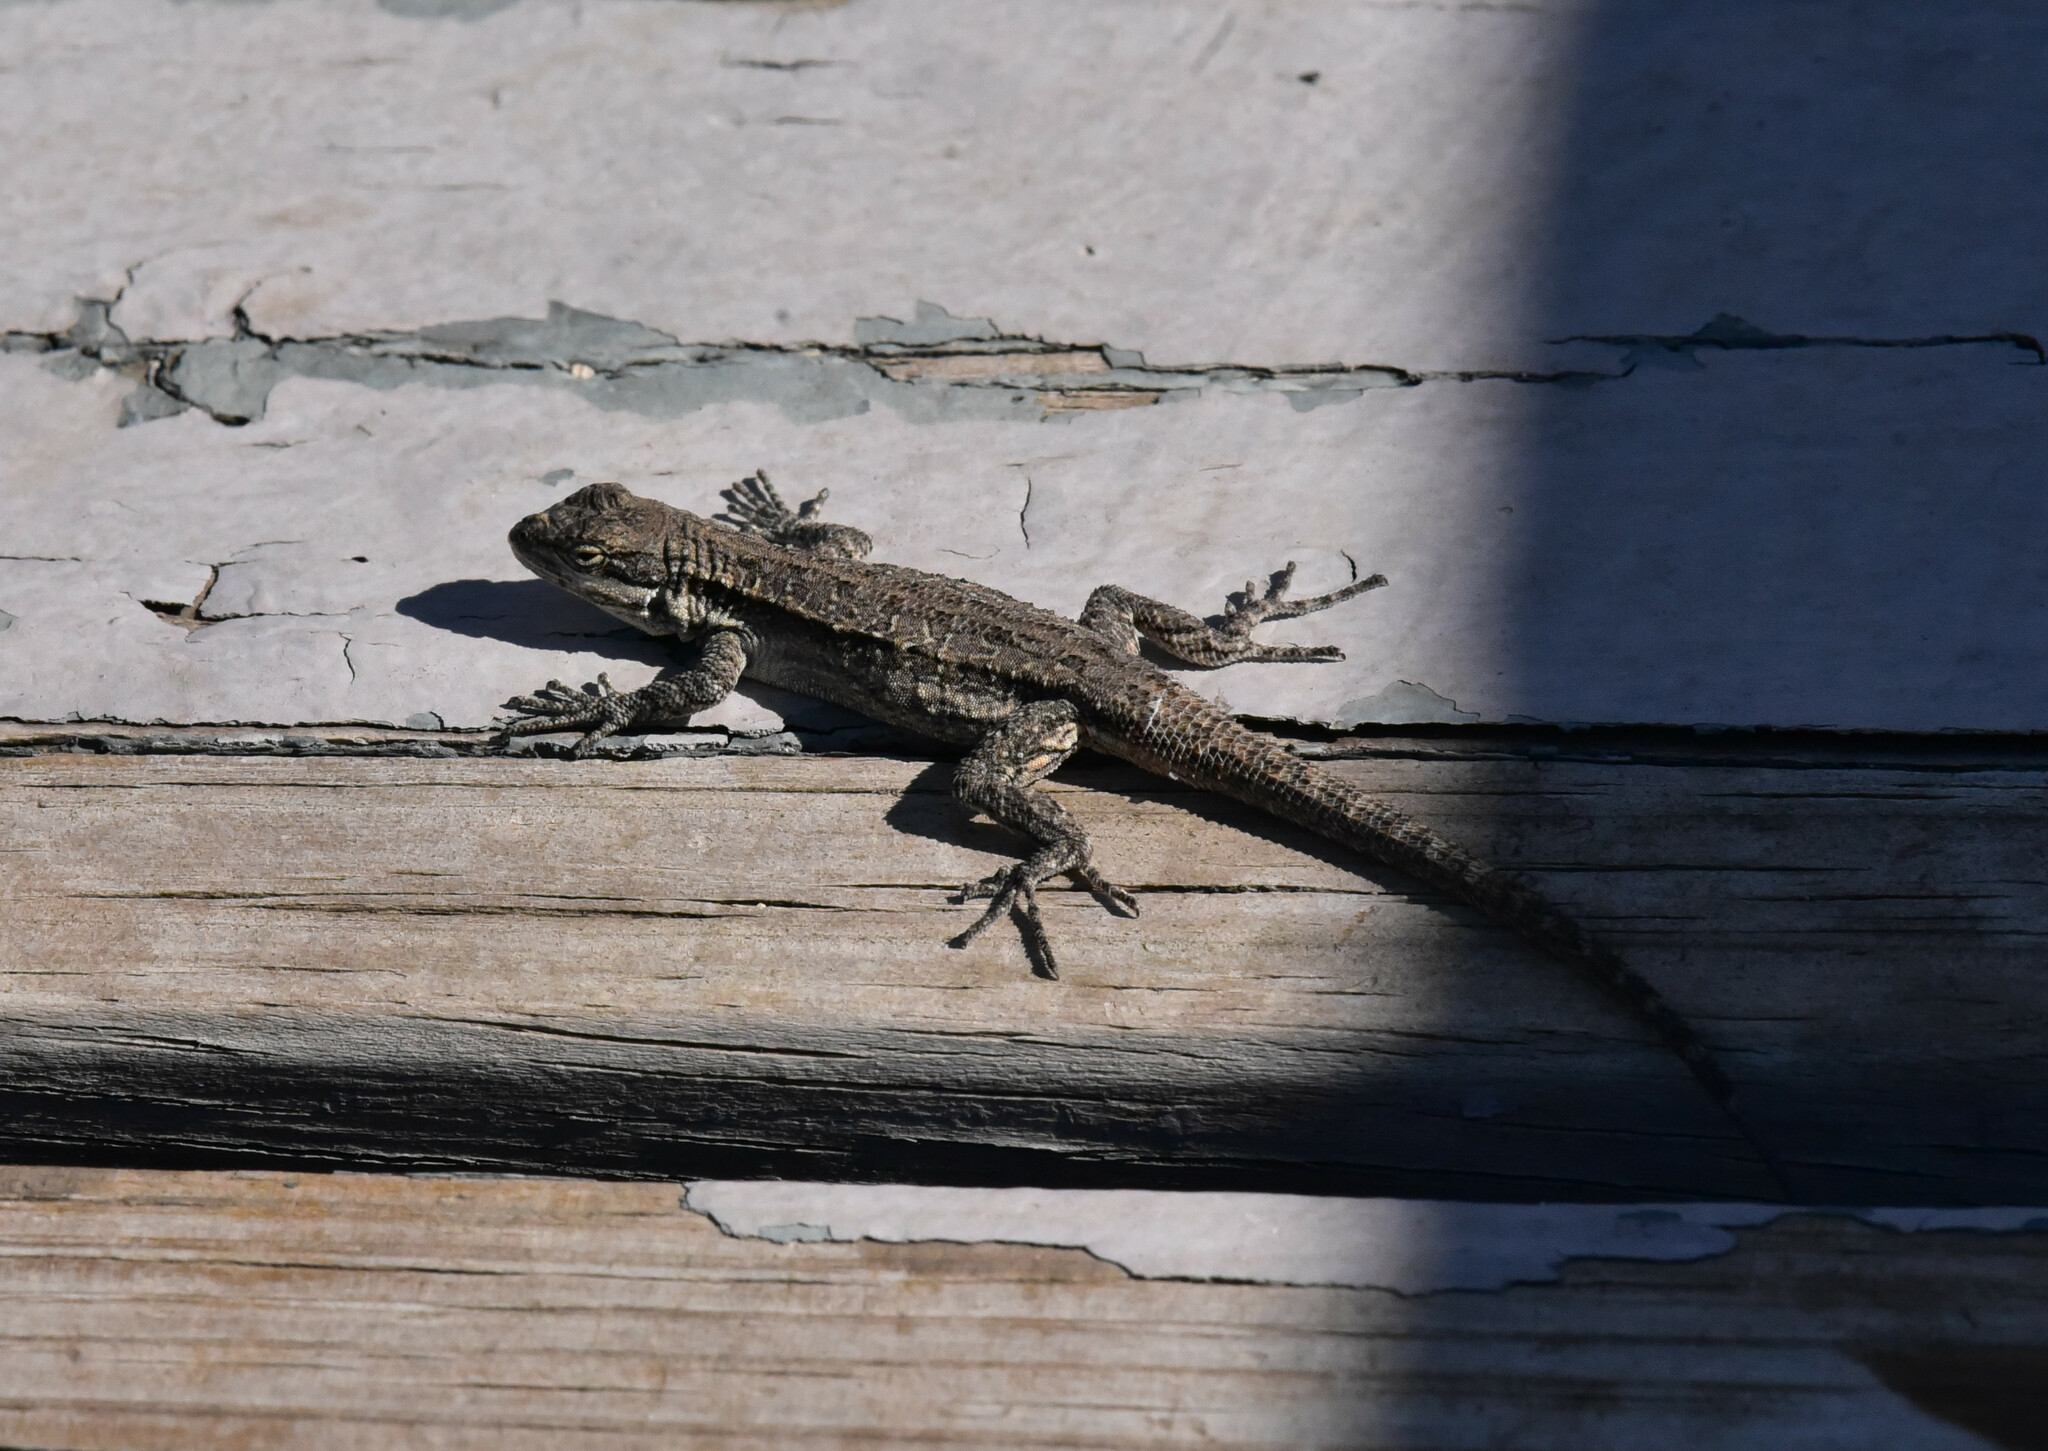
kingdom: Animalia
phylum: Chordata
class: Squamata
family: Phrynosomatidae
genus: Urosaurus
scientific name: Urosaurus ornatus
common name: Ornate tree lizard
